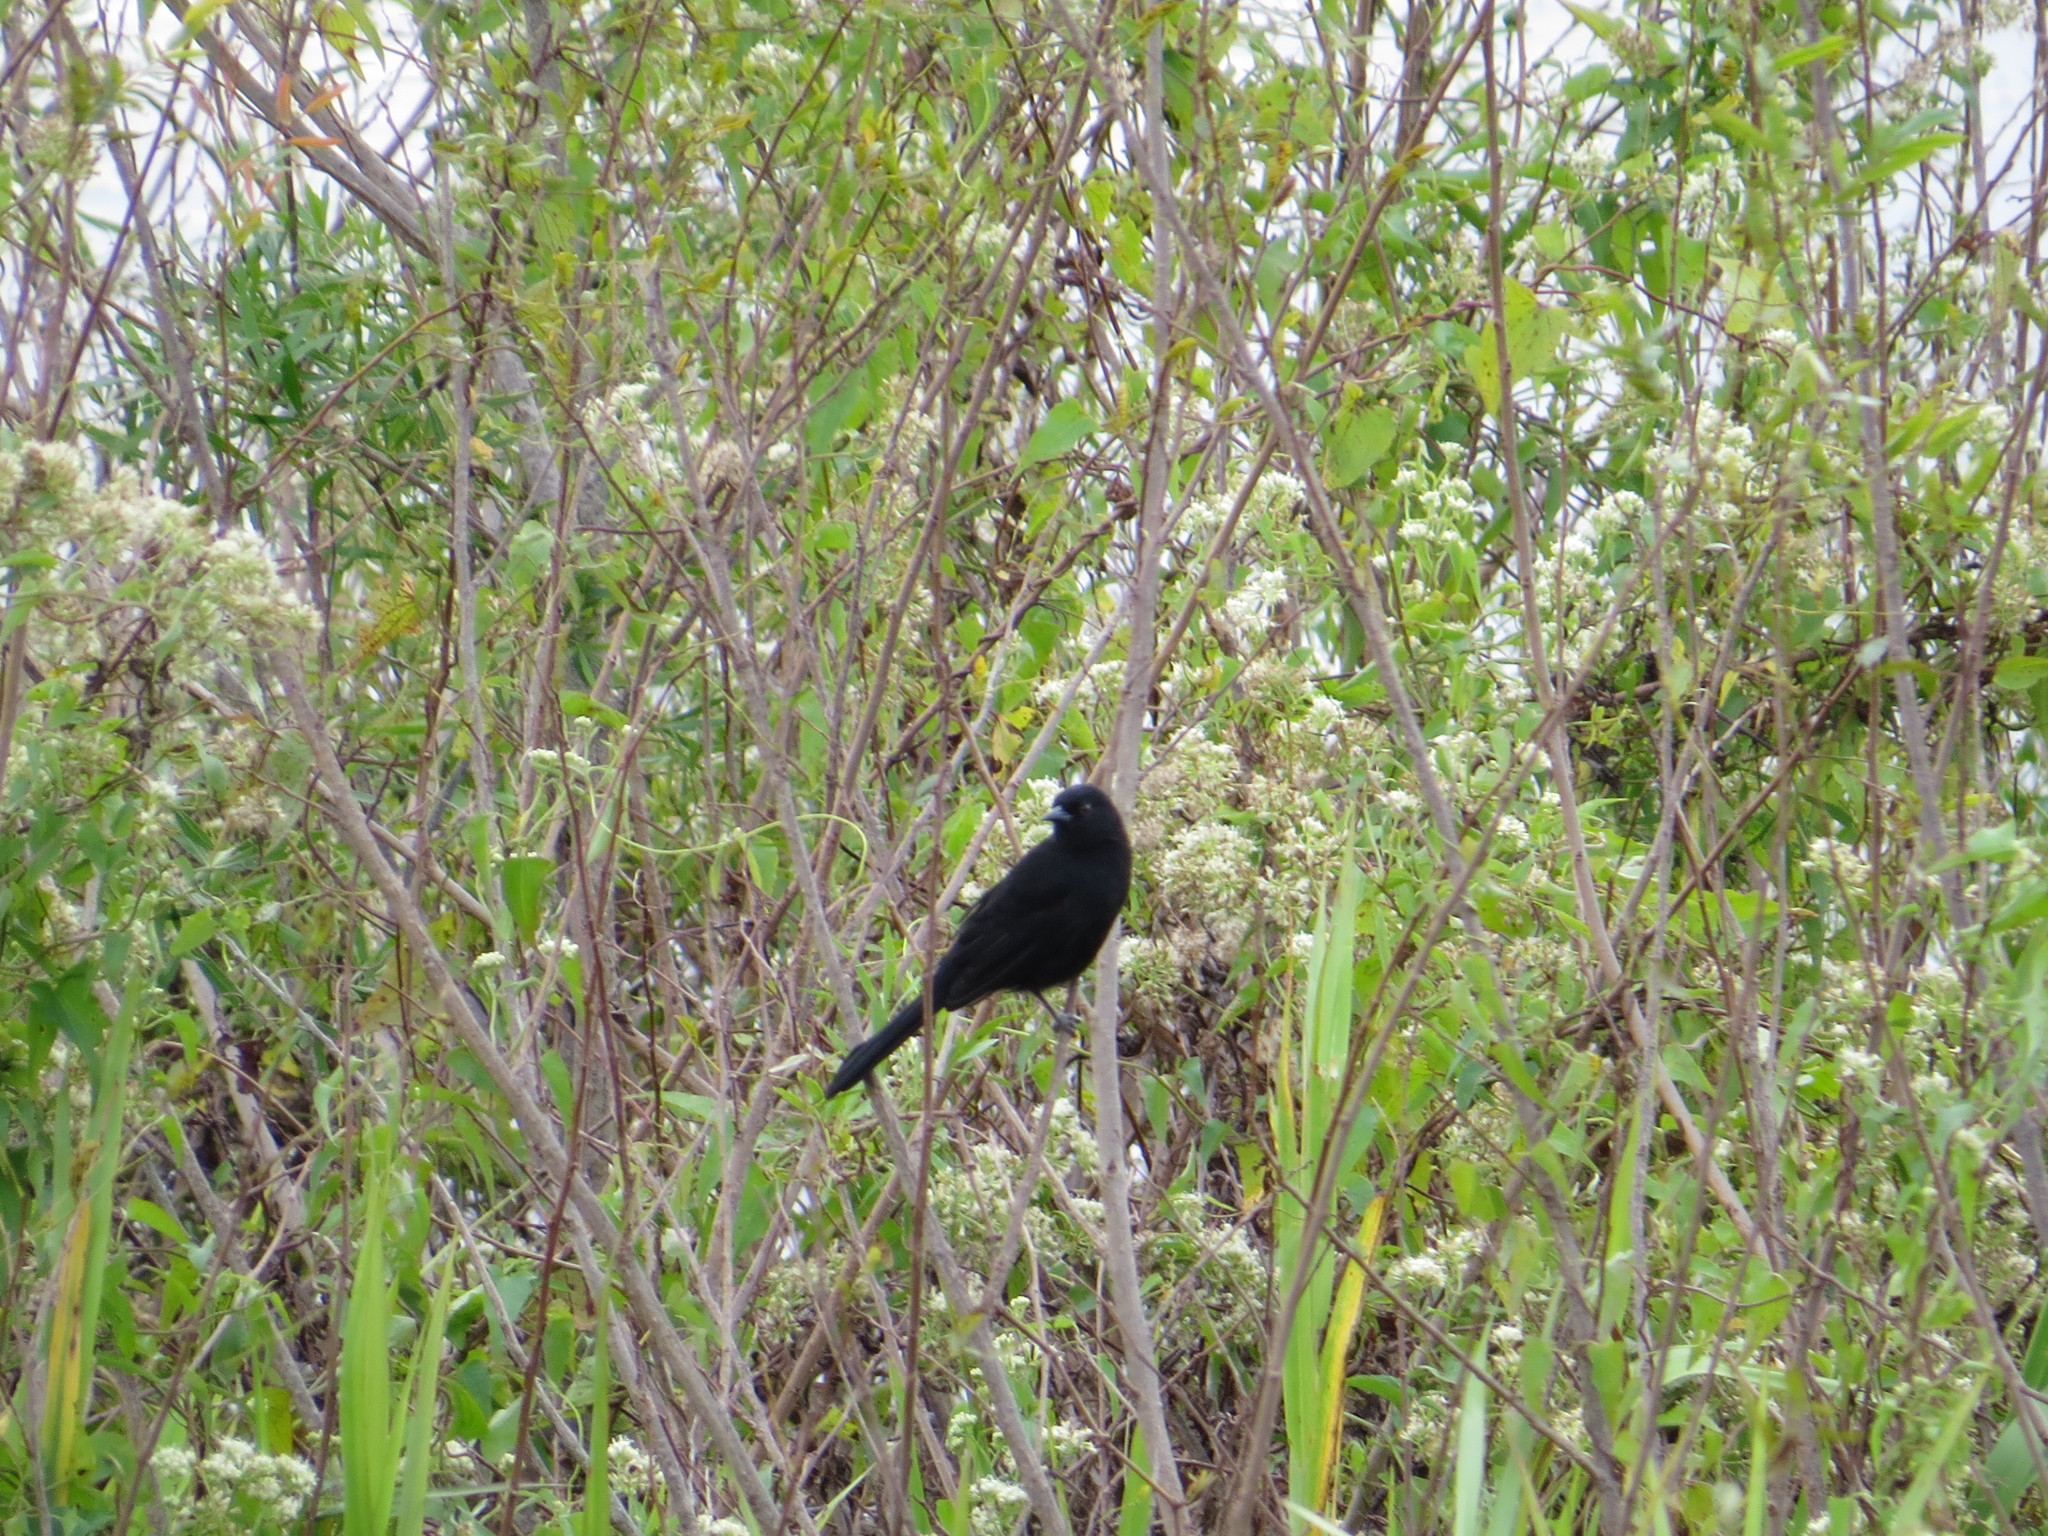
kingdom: Animalia
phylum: Chordata
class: Aves
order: Passeriformes
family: Icteridae
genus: Icterus
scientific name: Icterus cayanensis
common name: Epaulet oriole
